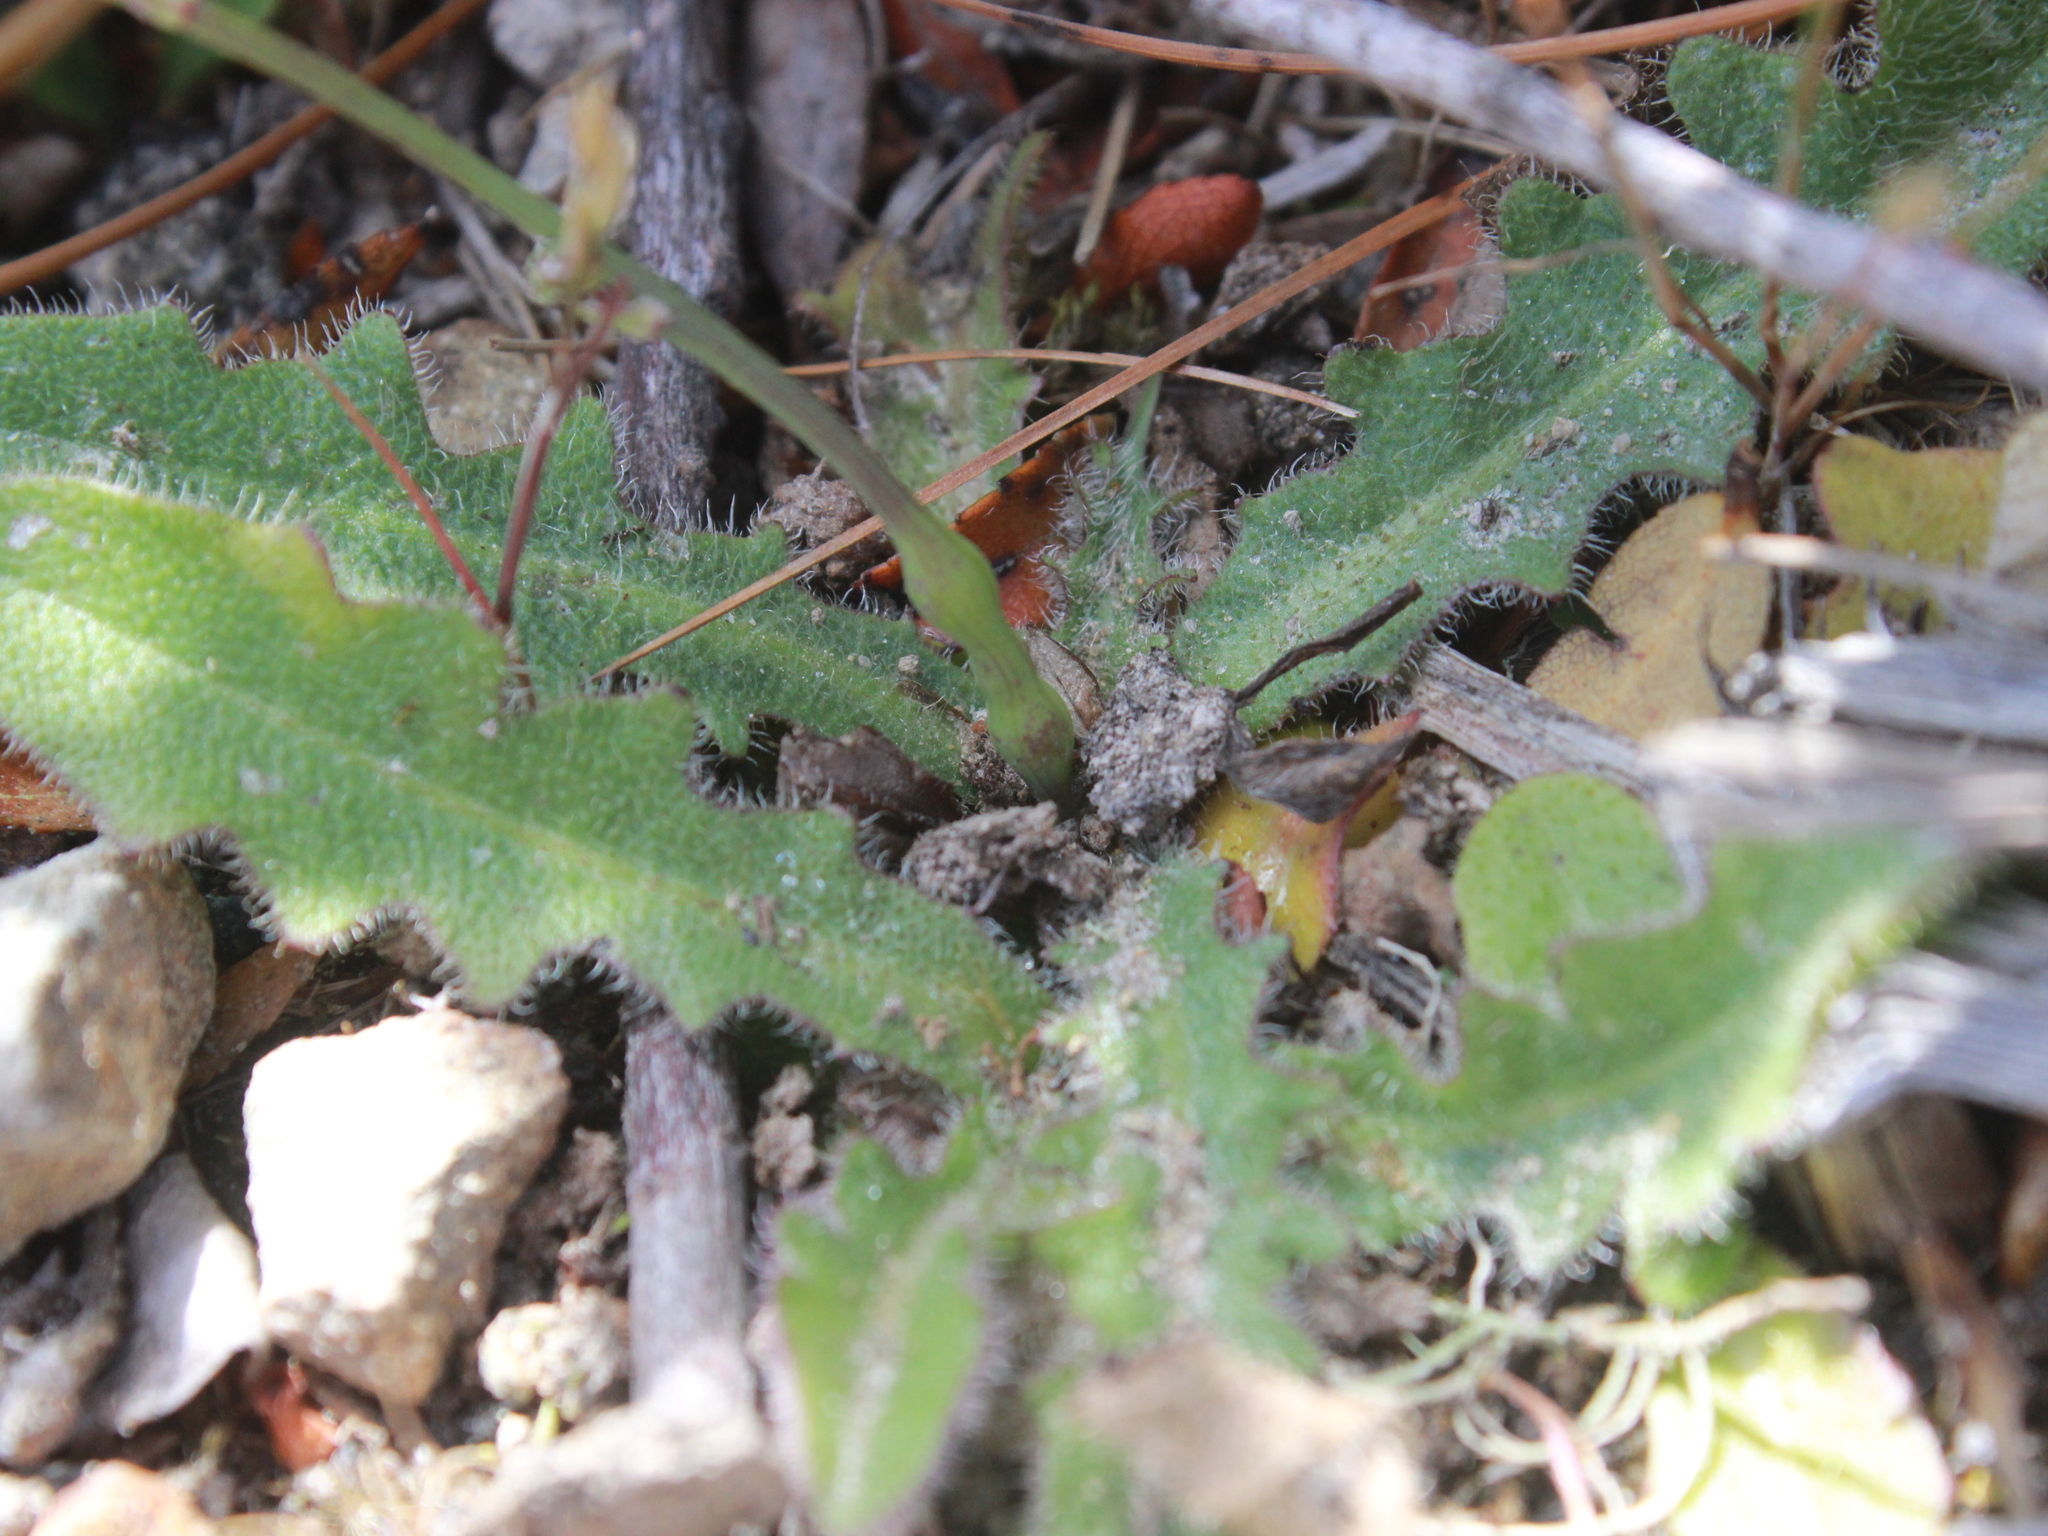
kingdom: Animalia
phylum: Arthropoda
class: Insecta
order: Hymenoptera
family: Cynipidae
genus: Phanacis
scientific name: Phanacis hypochoeridis
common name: Gall wasp
